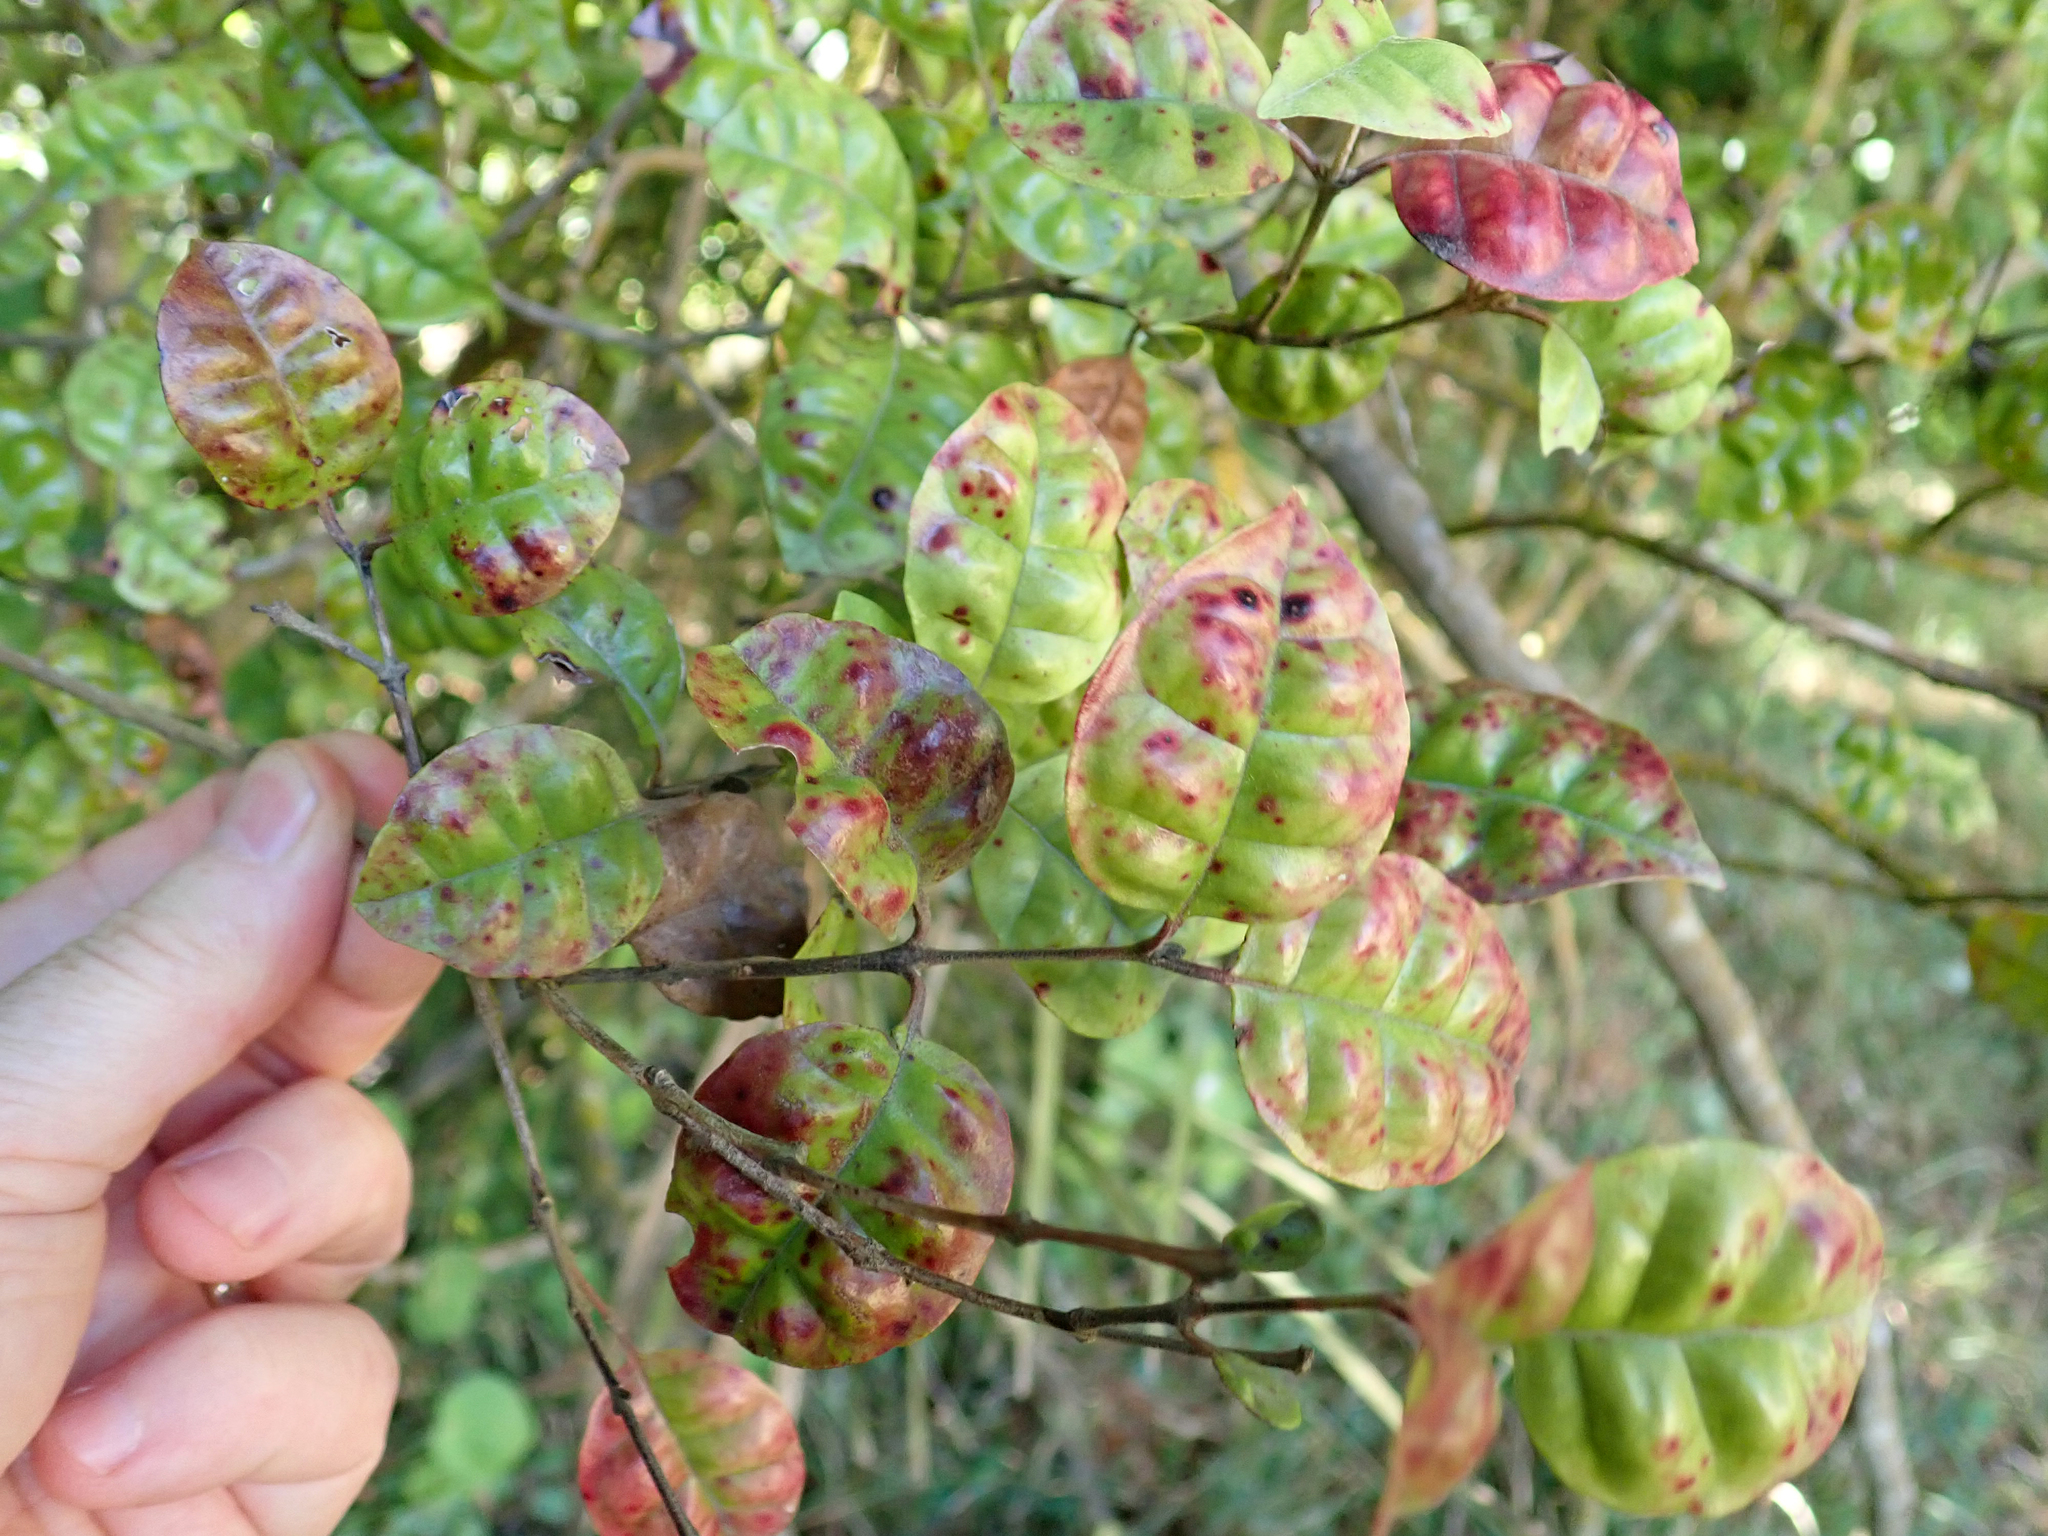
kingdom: Plantae
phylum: Tracheophyta
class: Magnoliopsida
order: Myrtales
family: Myrtaceae
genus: Lophomyrtus
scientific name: Lophomyrtus bullata
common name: Rama rama
